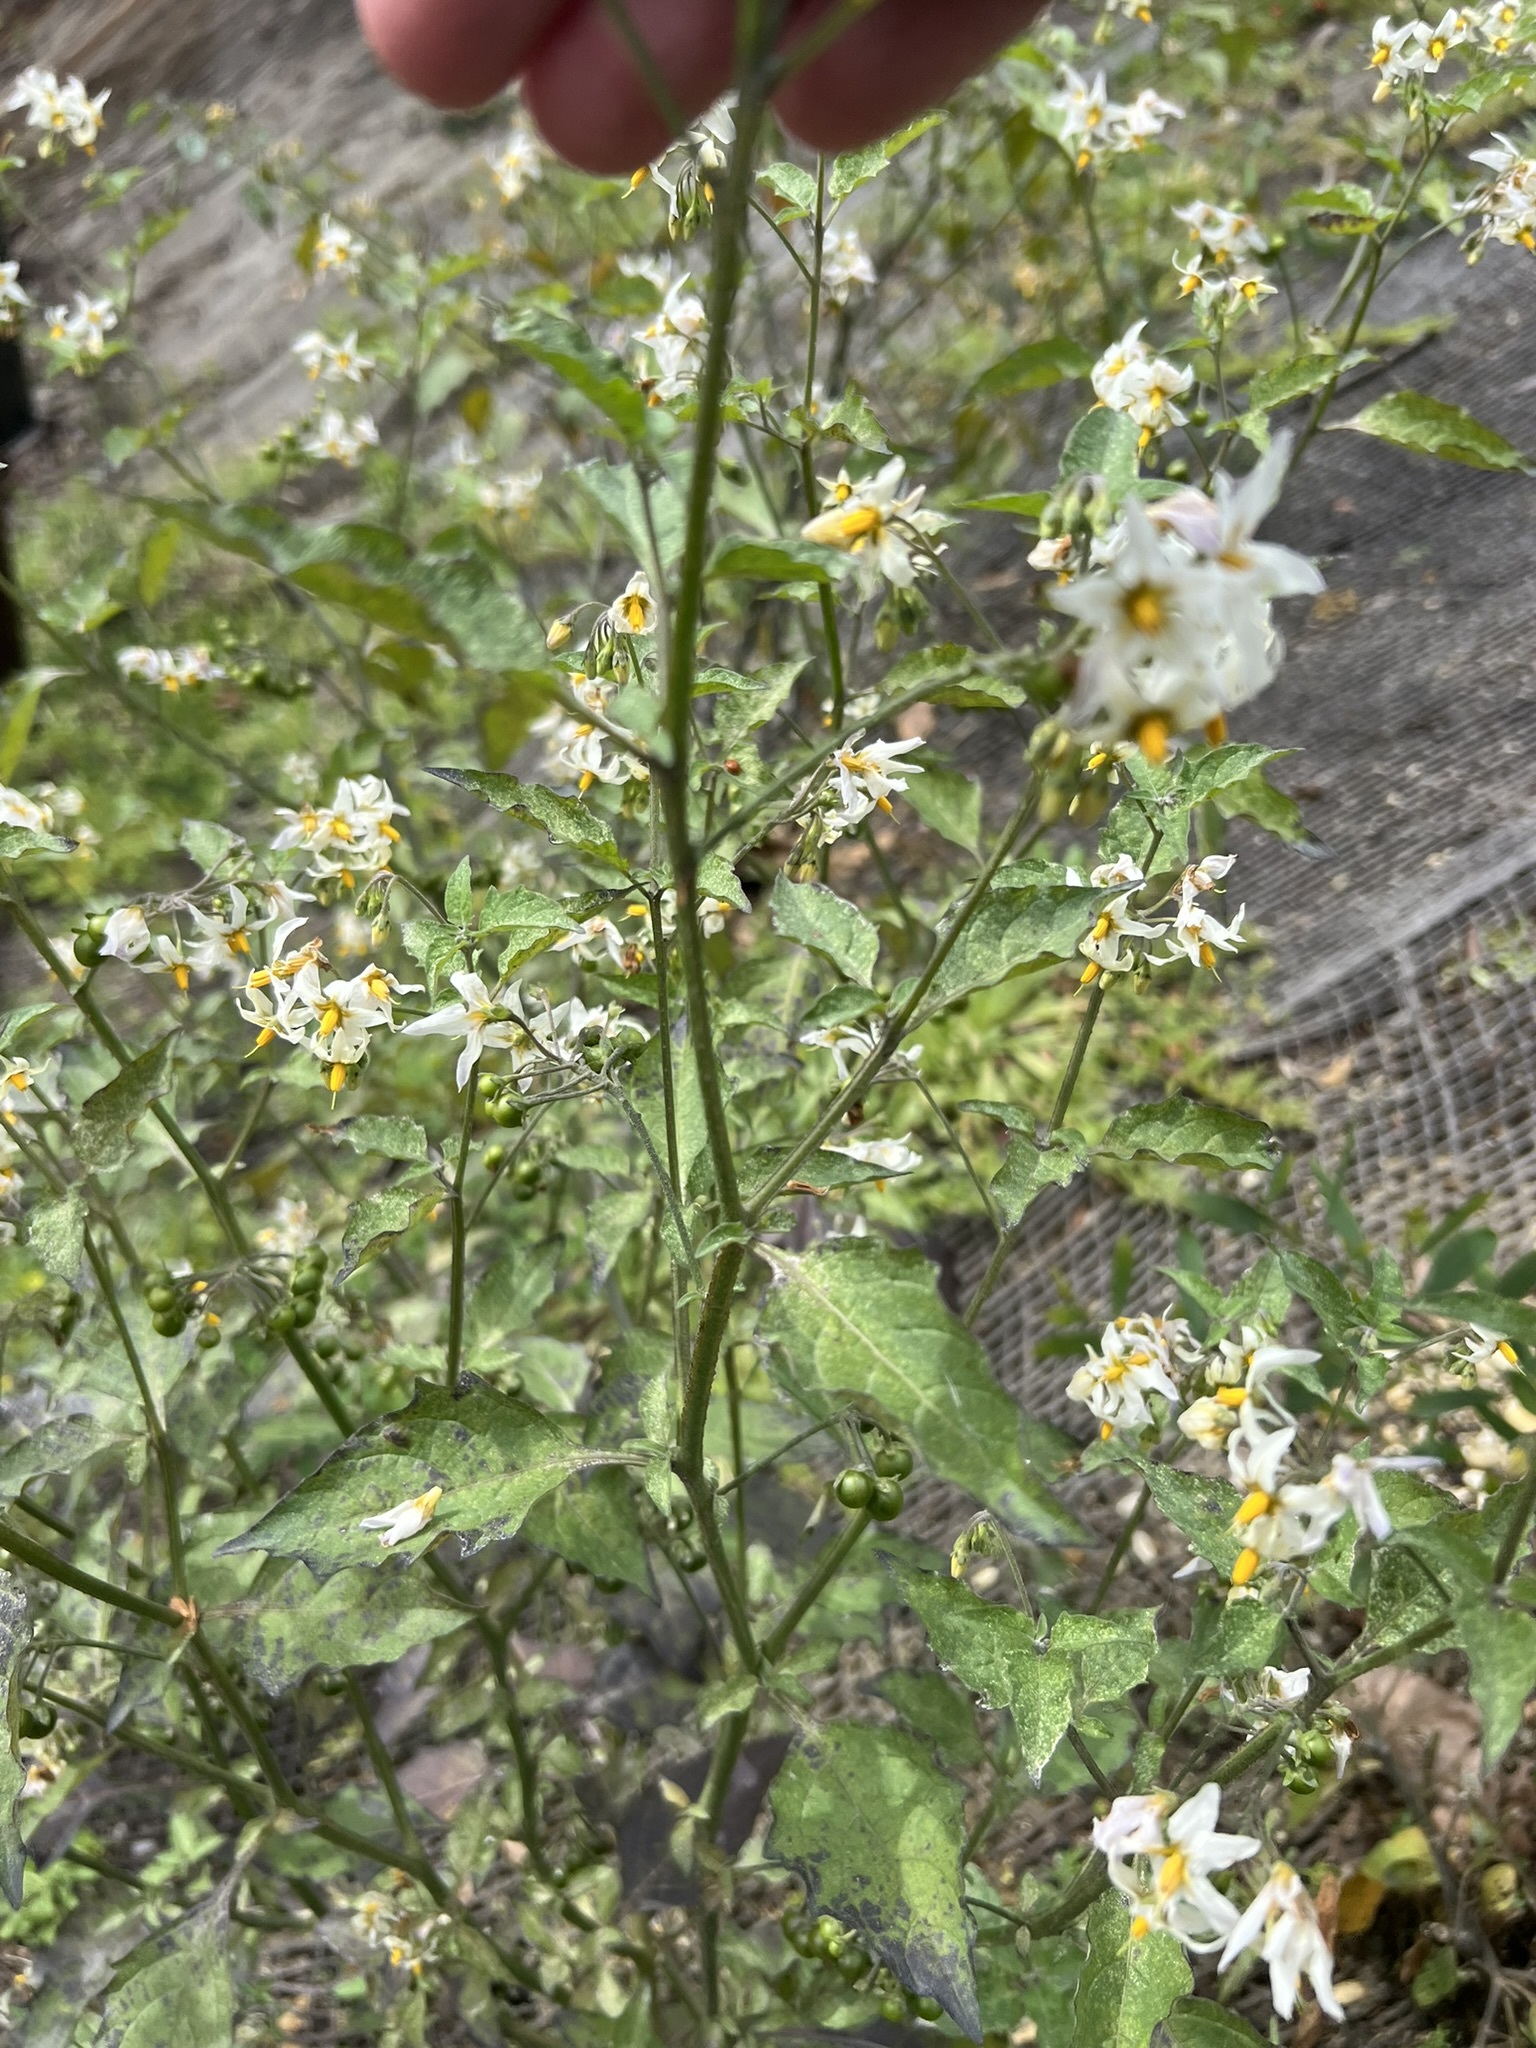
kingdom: Plantae
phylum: Tracheophyta
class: Magnoliopsida
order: Solanales
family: Solanaceae
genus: Solanum
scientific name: Solanum douglasii
